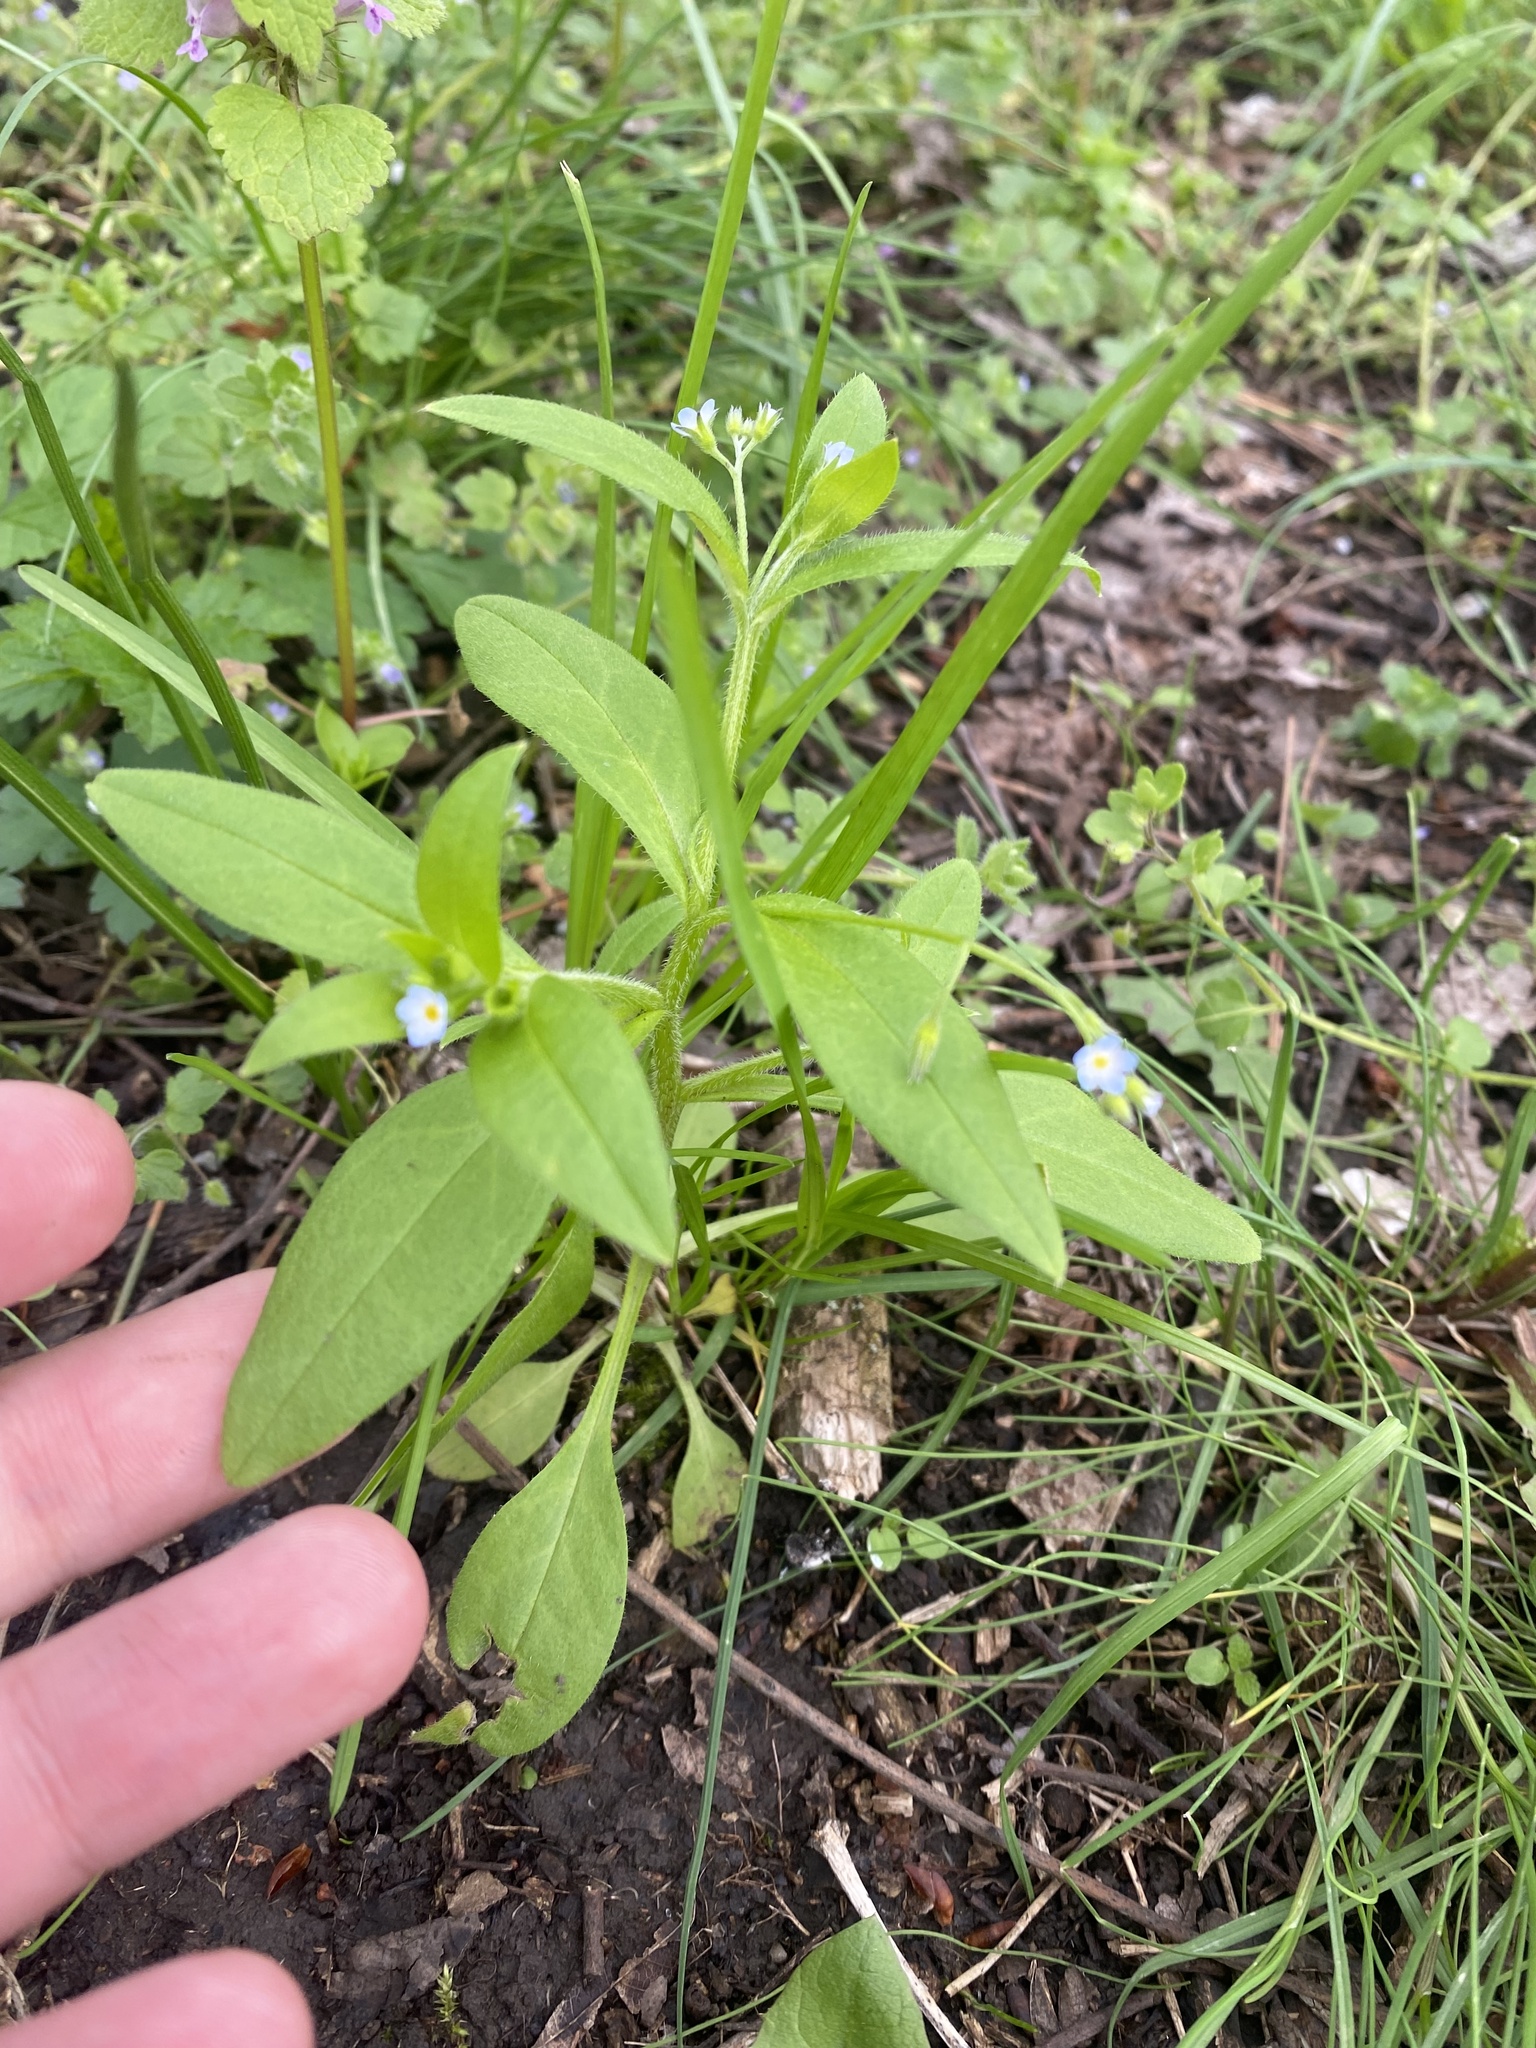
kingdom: Plantae
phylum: Tracheophyta
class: Magnoliopsida
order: Boraginales
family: Boraginaceae
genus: Myosotis
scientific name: Myosotis sparsiflora
